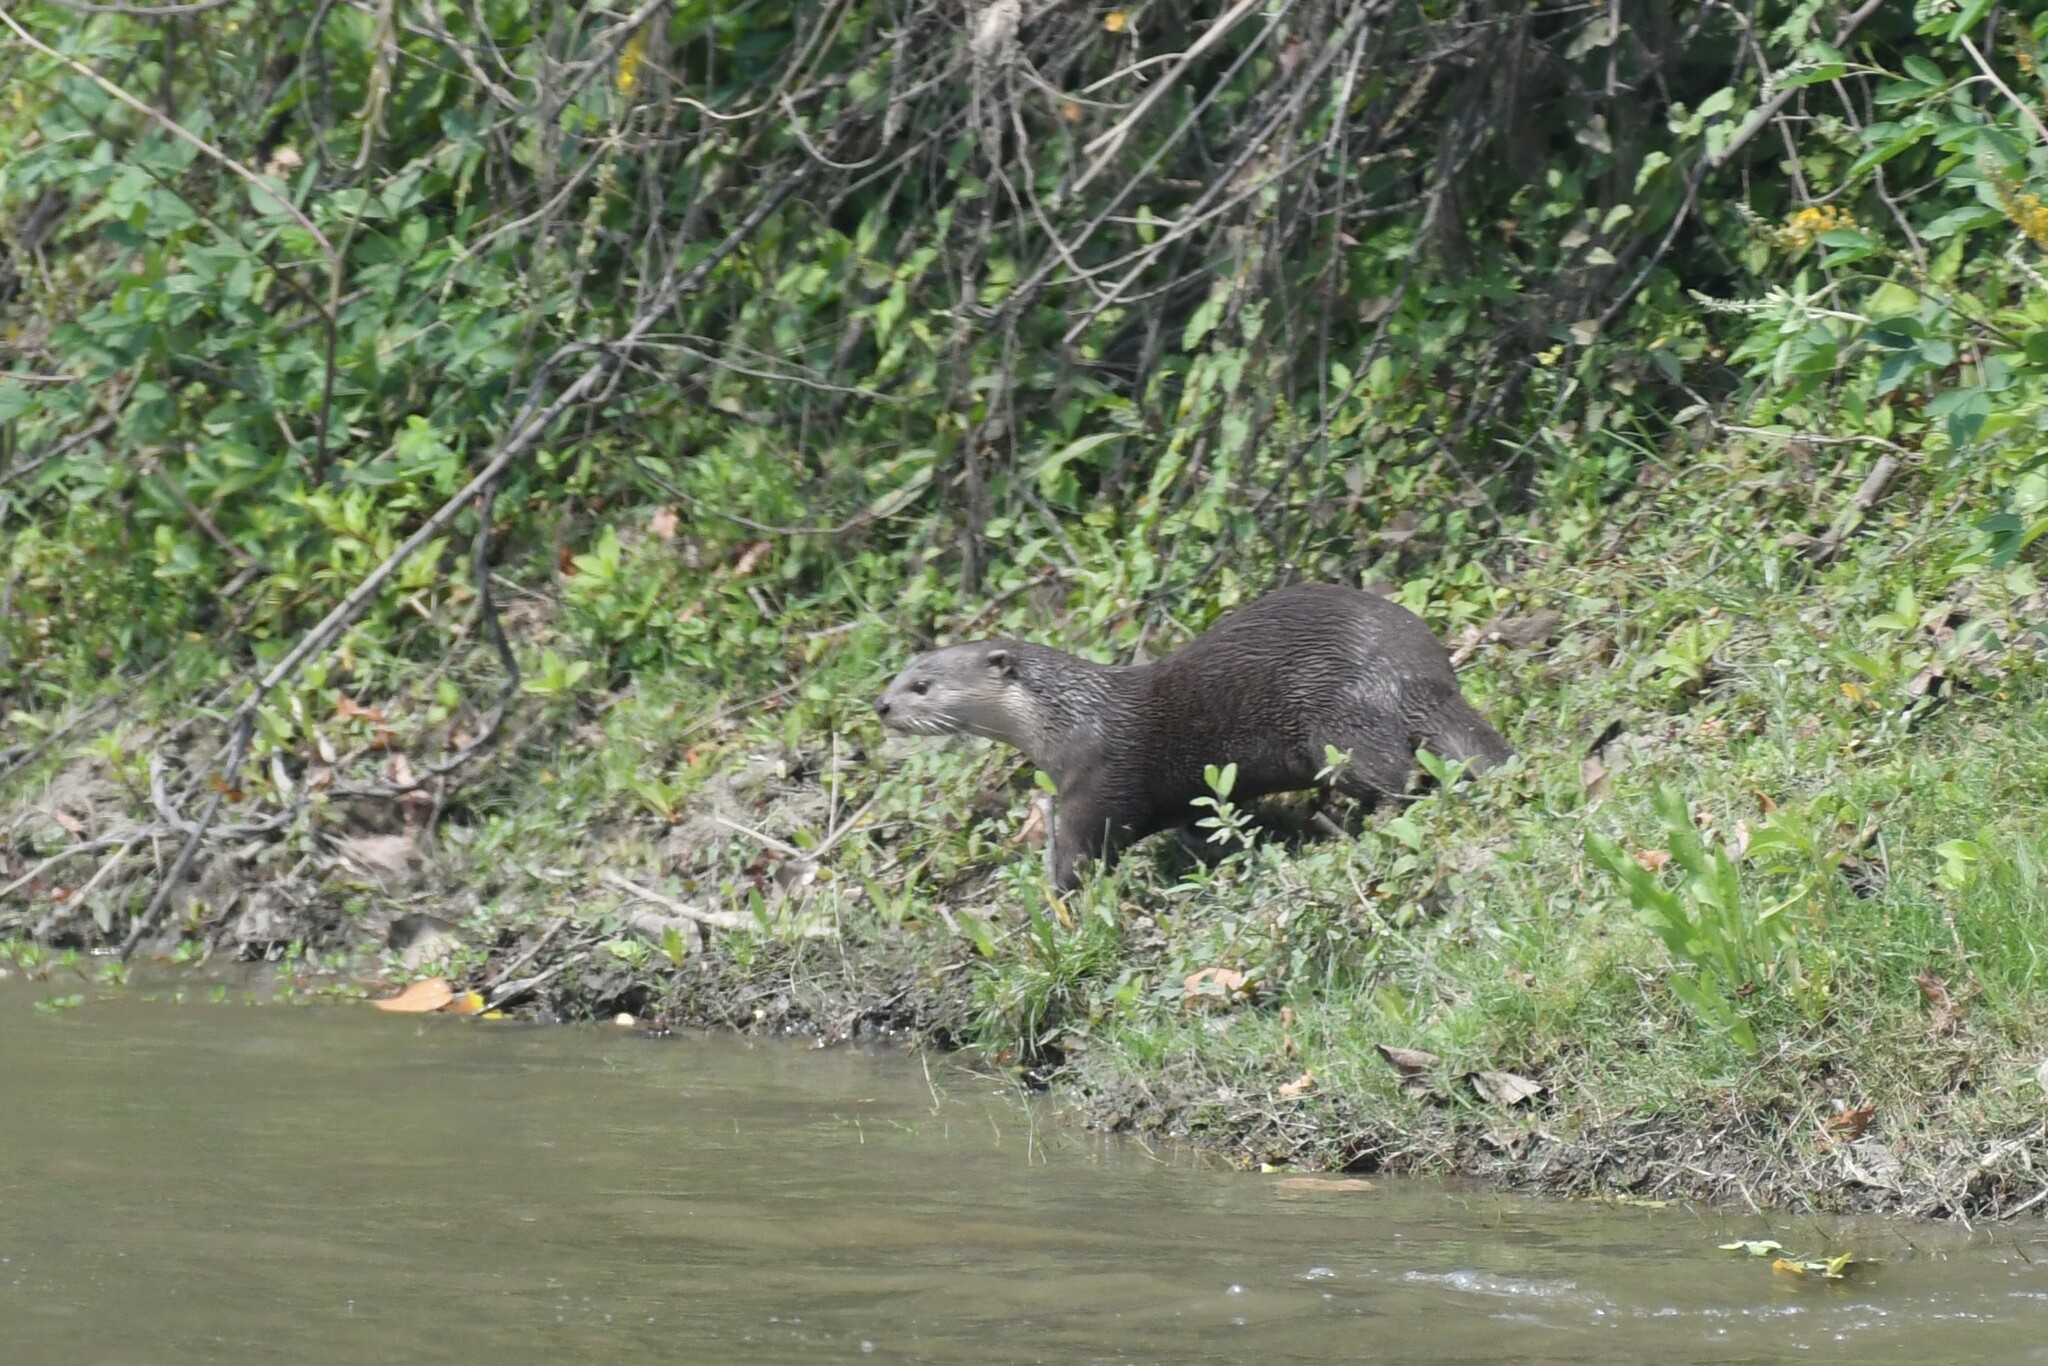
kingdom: Animalia
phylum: Chordata
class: Mammalia
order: Carnivora
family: Mustelidae
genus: Lutrogale
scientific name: Lutrogale perspicillata
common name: Smooth-coated otter
